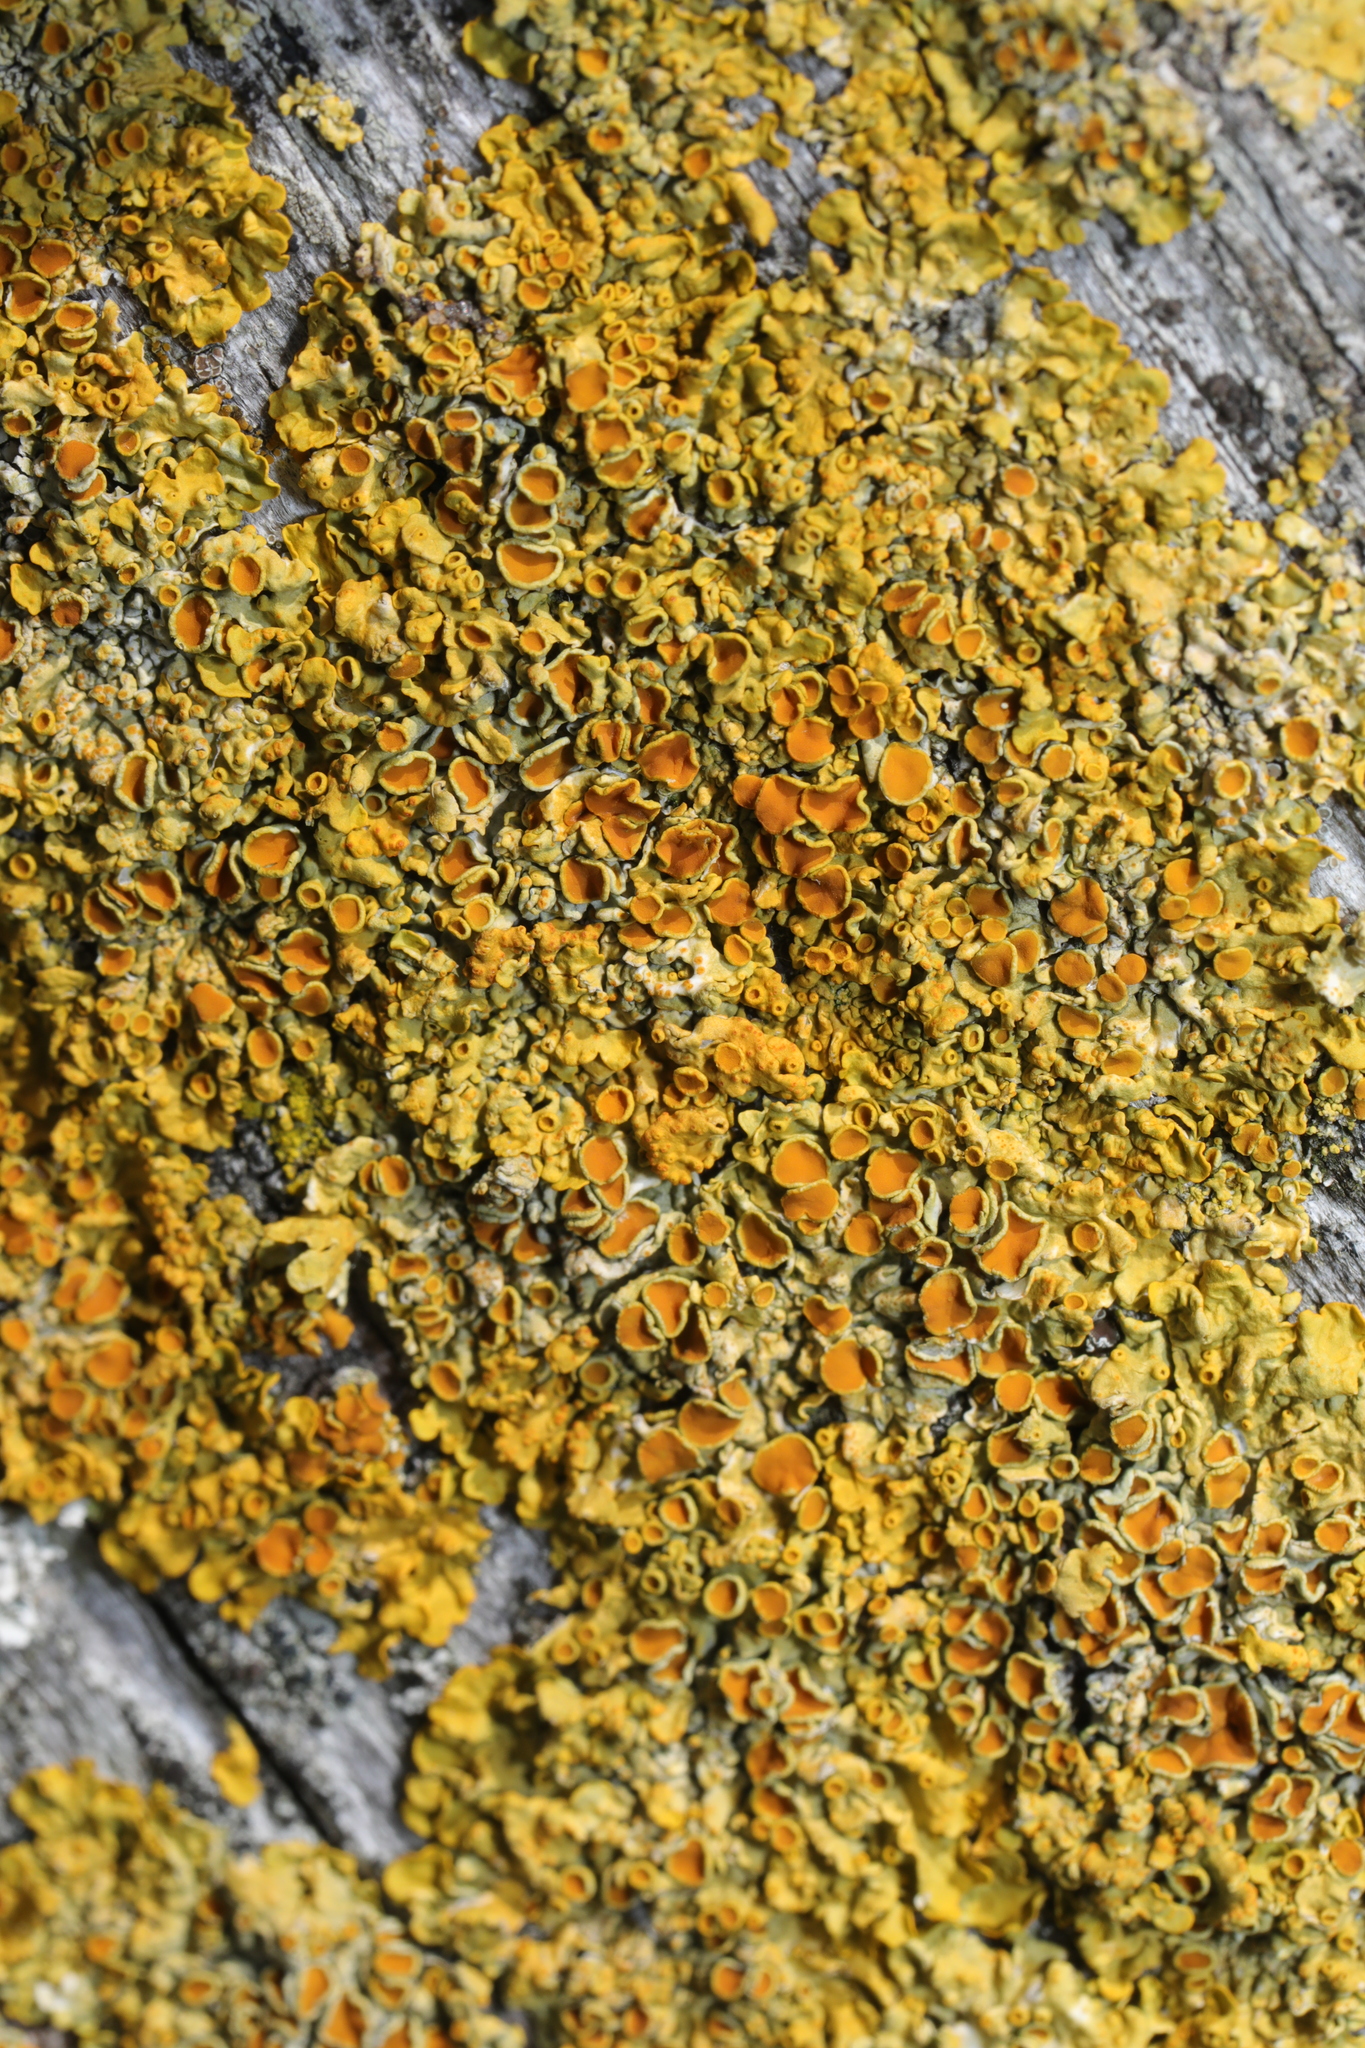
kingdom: Fungi
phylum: Ascomycota
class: Lecanoromycetes
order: Teloschistales
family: Teloschistaceae
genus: Xanthoria
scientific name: Xanthoria parietina
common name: Common orange lichen
